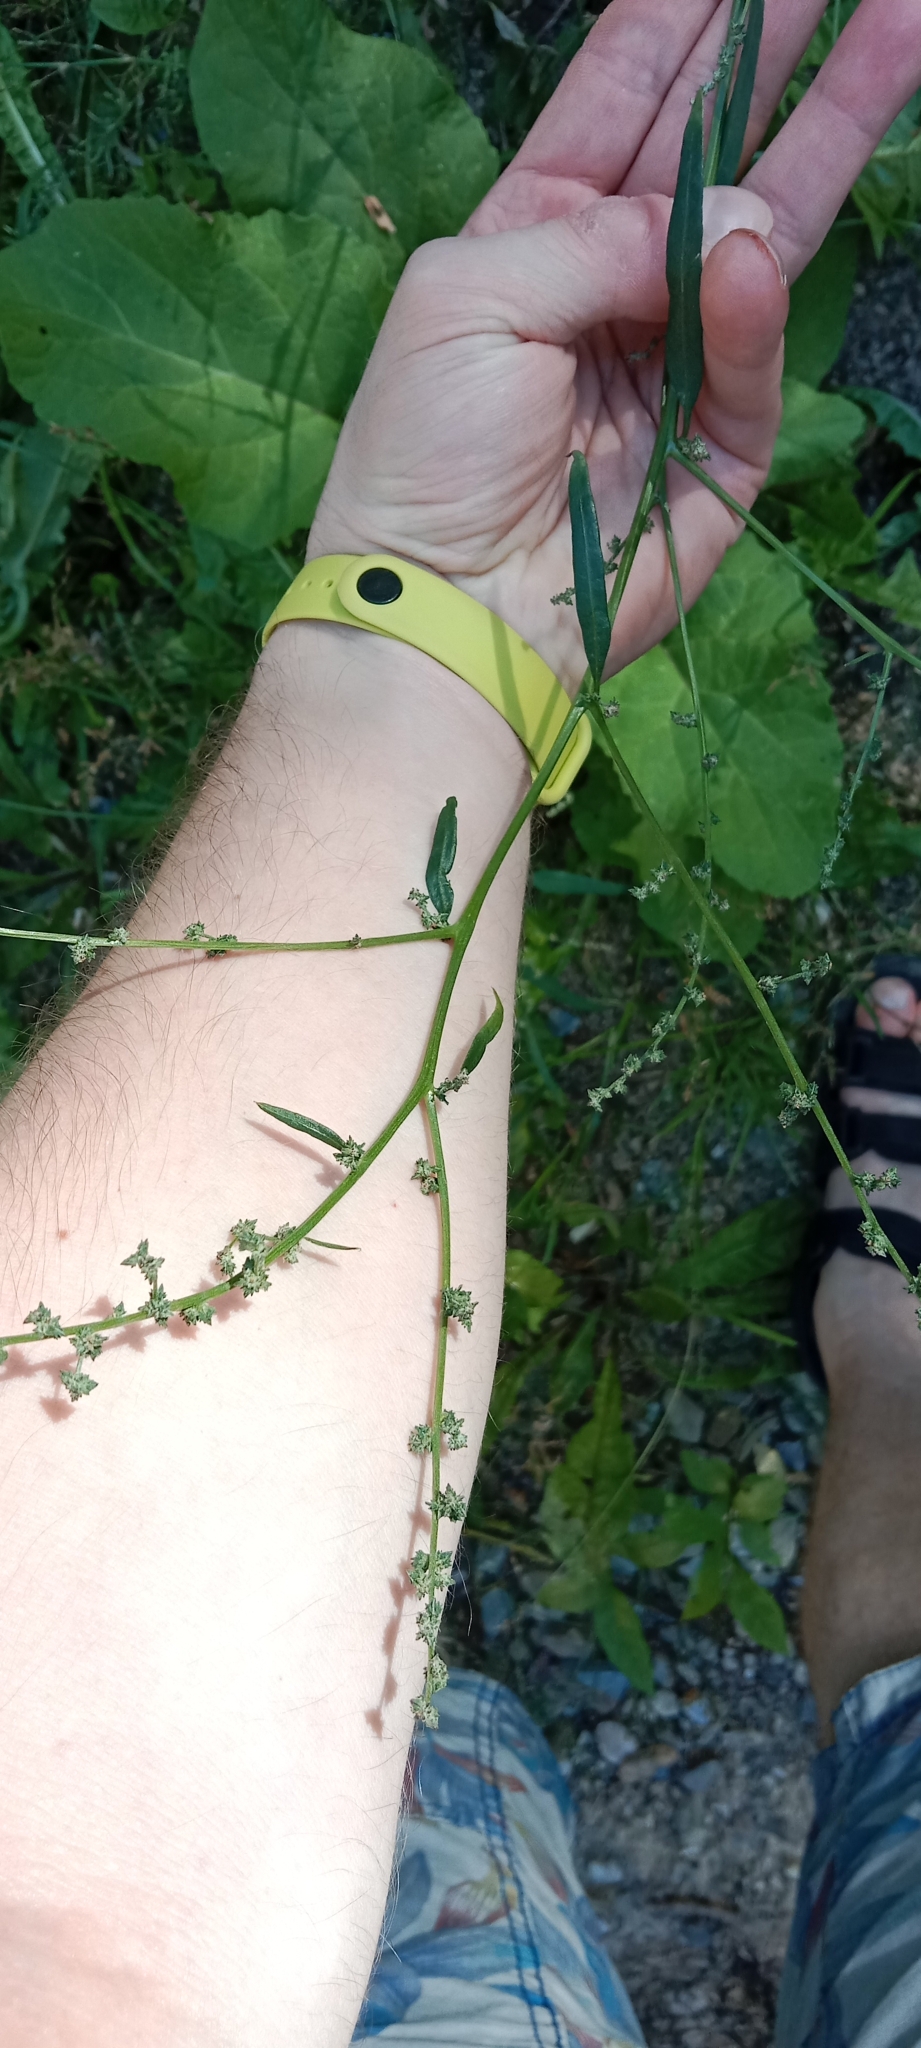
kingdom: Plantae
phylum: Tracheophyta
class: Magnoliopsida
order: Caryophyllales
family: Amaranthaceae
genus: Atriplex
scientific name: Atriplex patula
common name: Common orache
